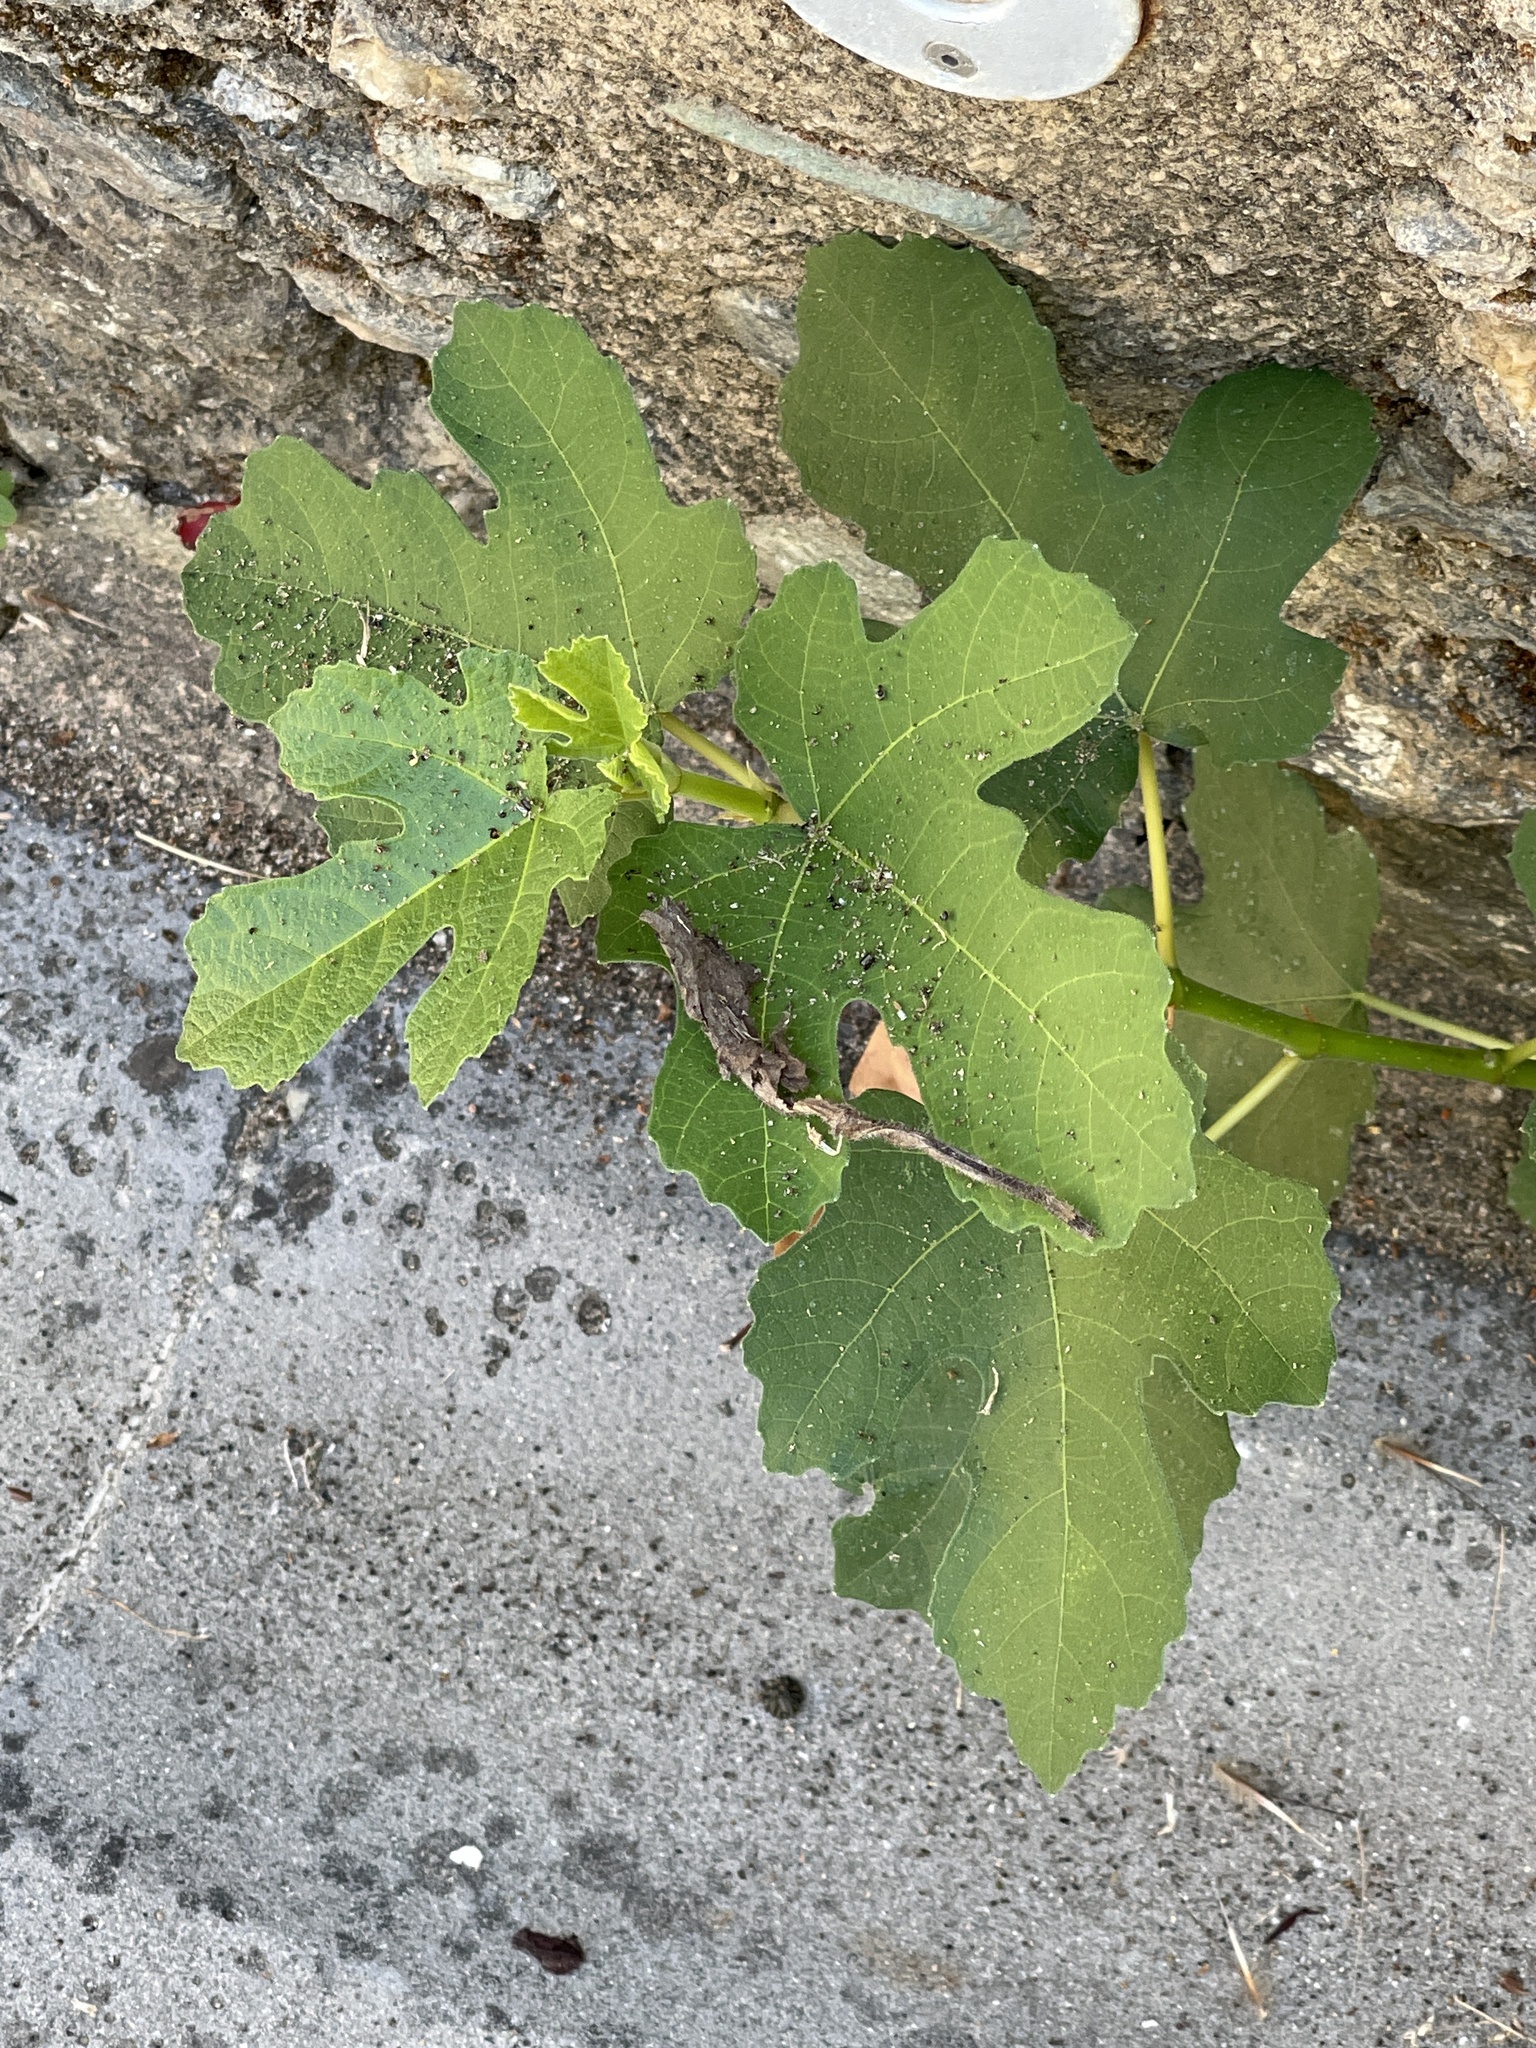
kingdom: Plantae
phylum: Tracheophyta
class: Magnoliopsida
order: Rosales
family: Moraceae
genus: Ficus
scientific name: Ficus carica
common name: Fig
